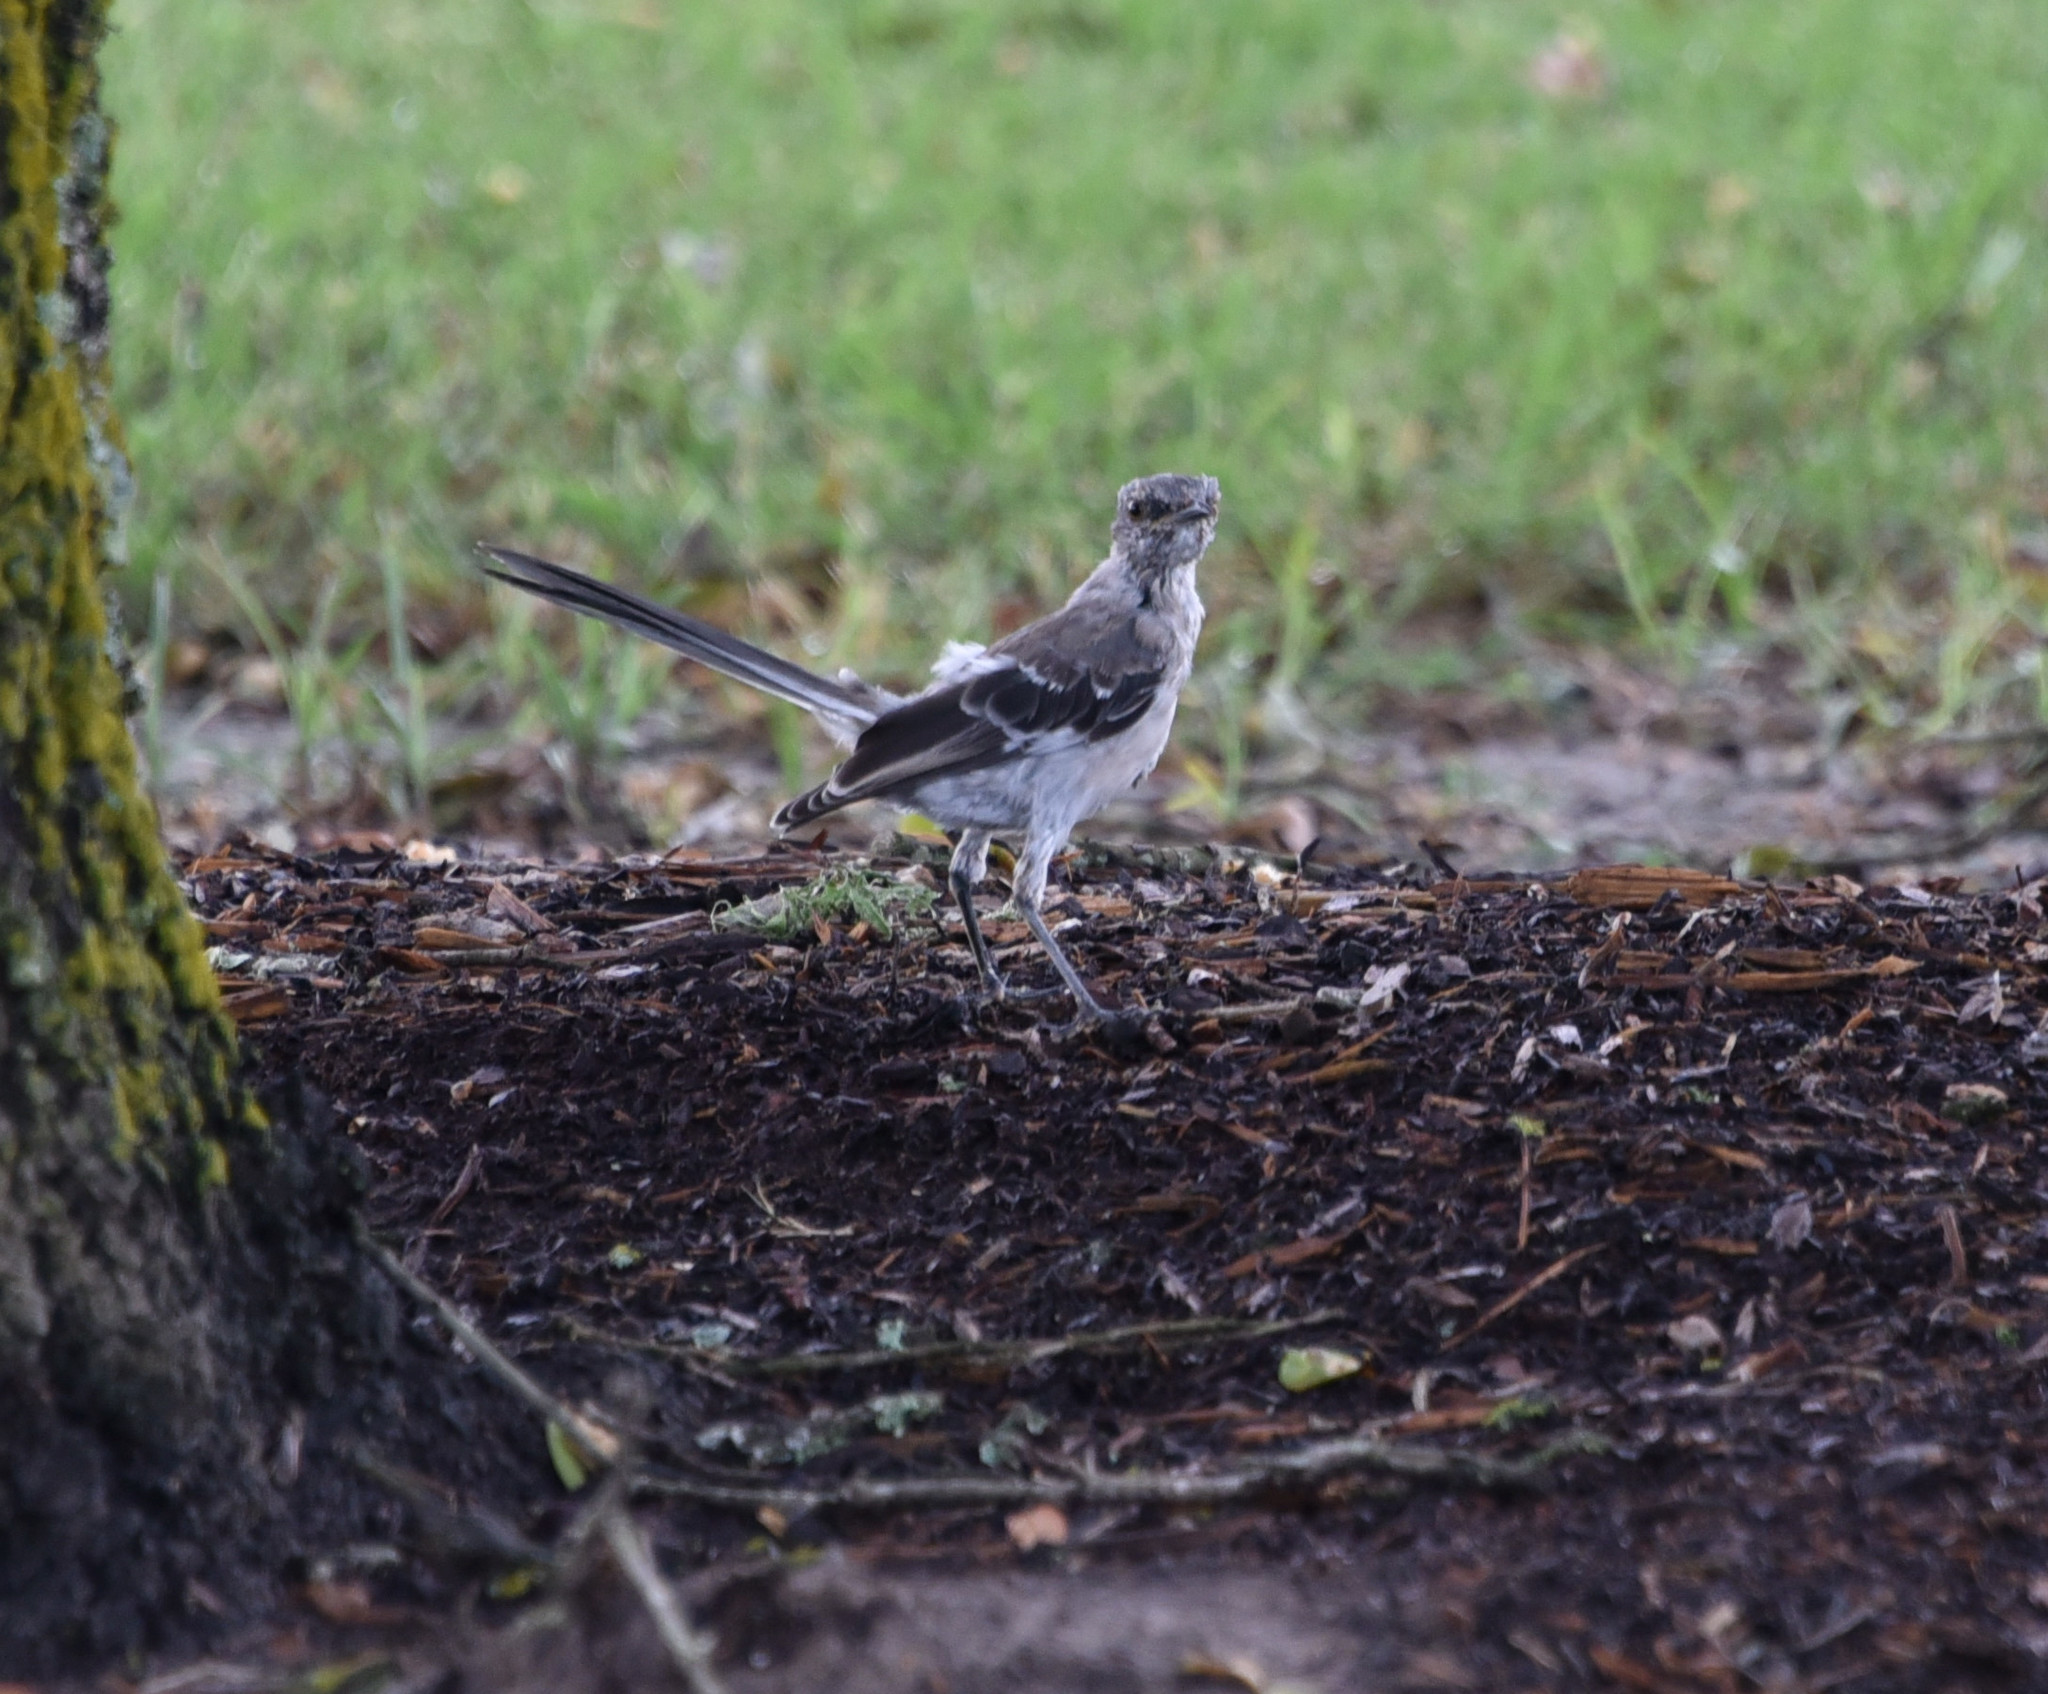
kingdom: Animalia
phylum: Chordata
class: Aves
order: Passeriformes
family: Mimidae
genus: Mimus
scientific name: Mimus polyglottos
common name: Northern mockingbird
